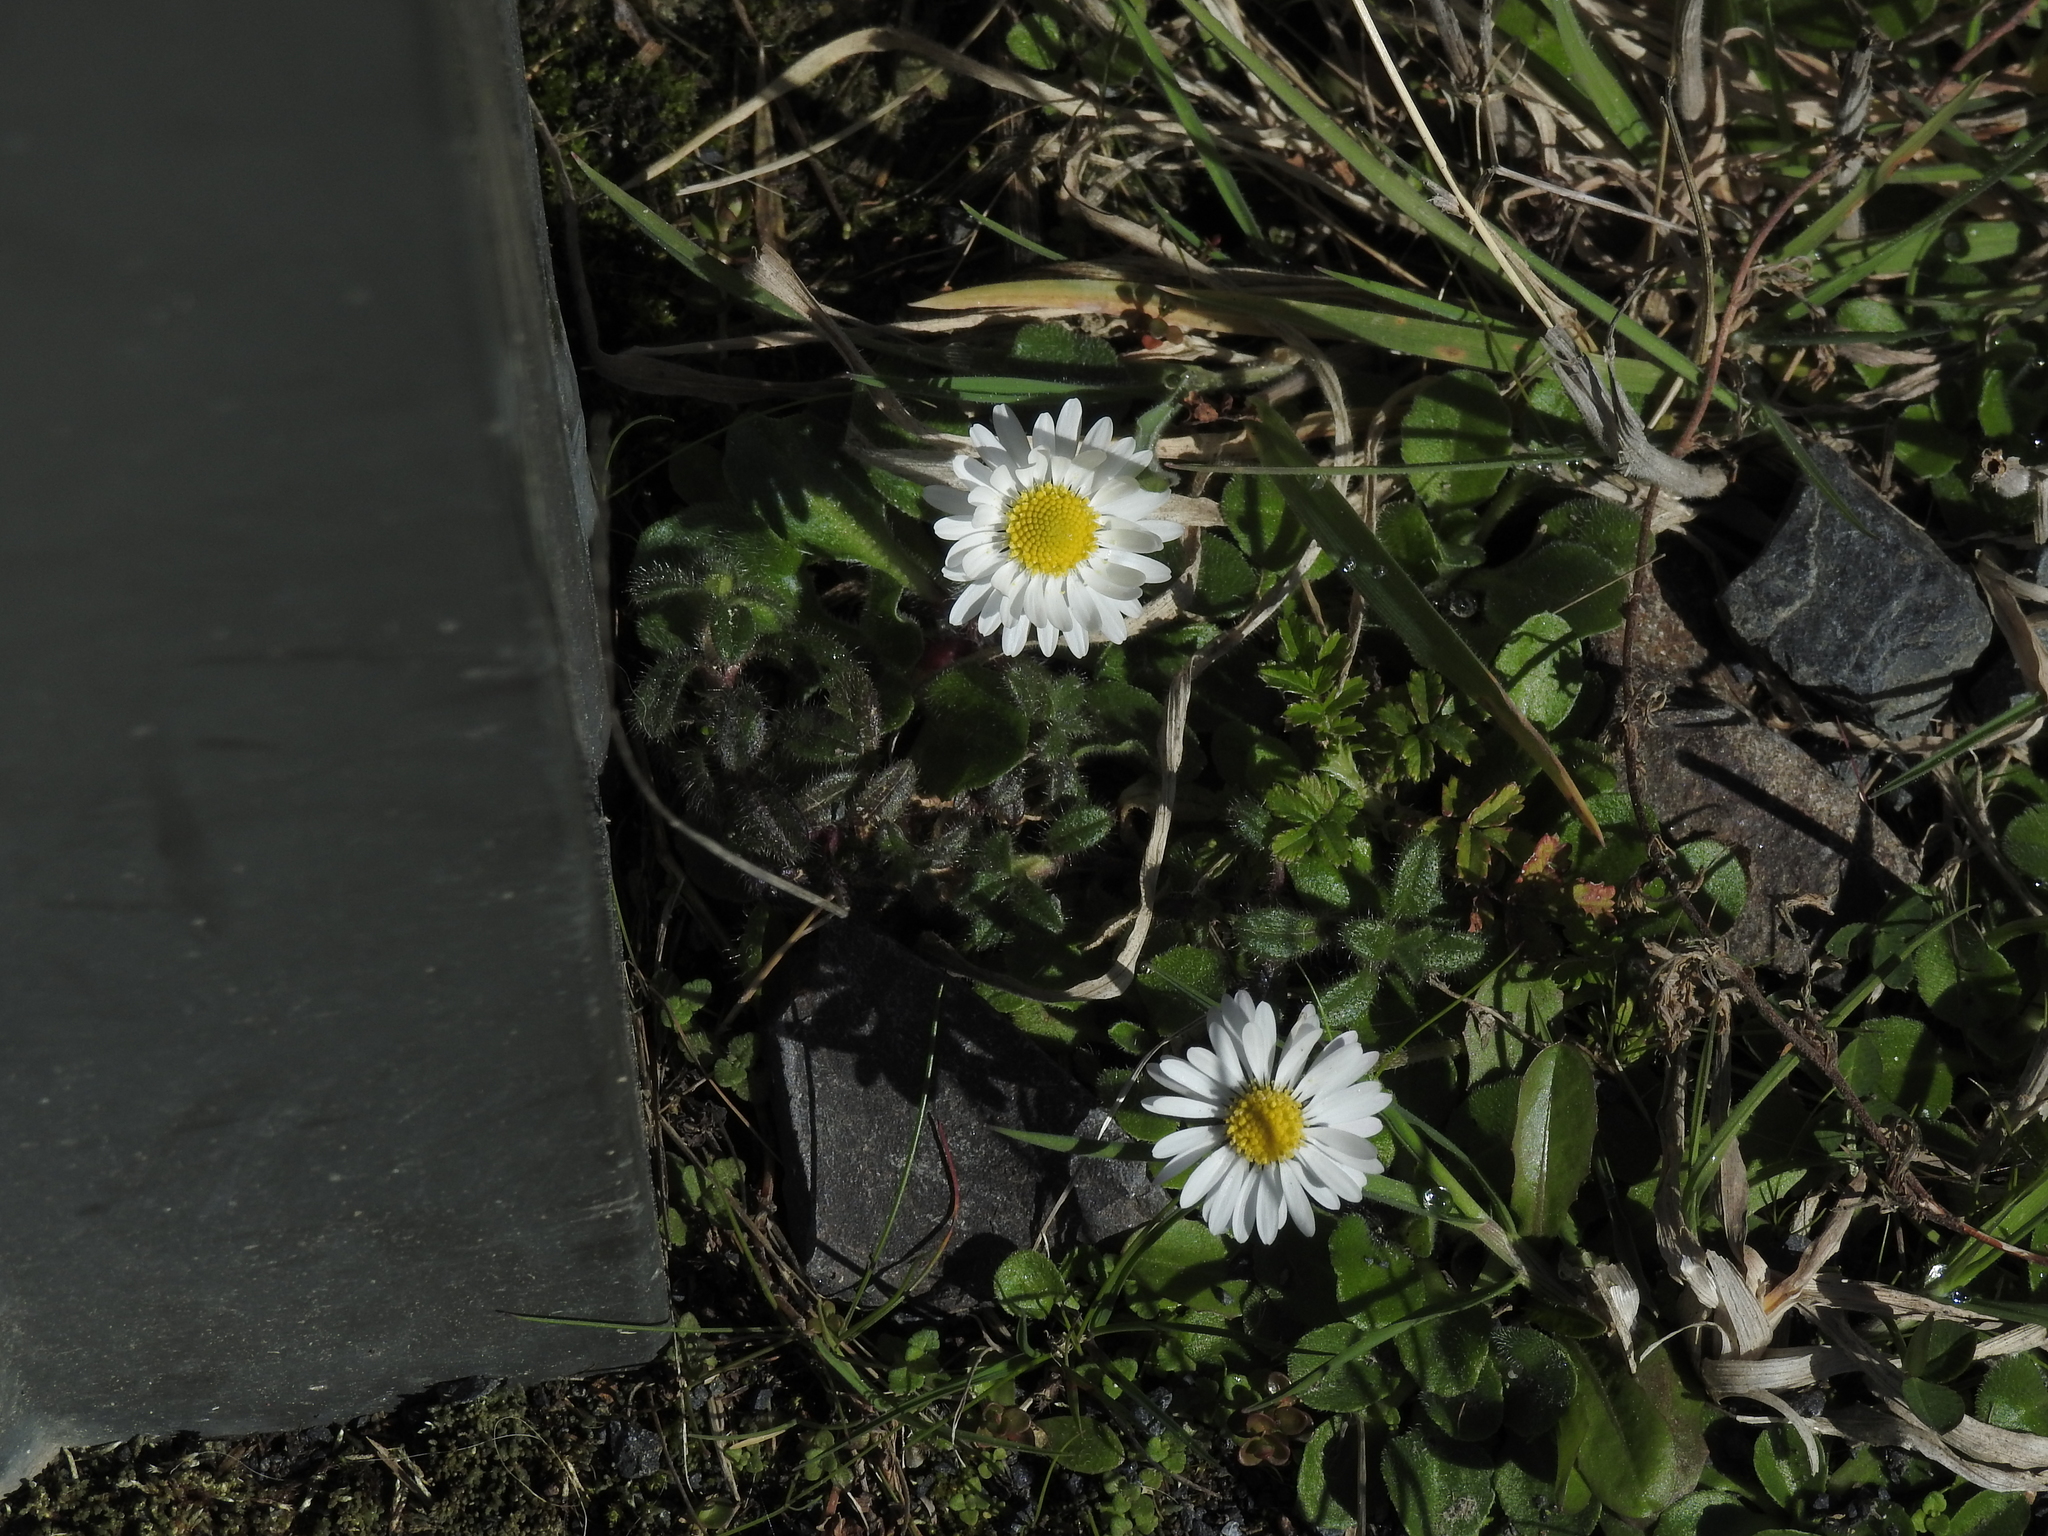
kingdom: Plantae
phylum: Tracheophyta
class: Magnoliopsida
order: Asterales
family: Asteraceae
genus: Bellis
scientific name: Bellis perennis
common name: Lawndaisy
